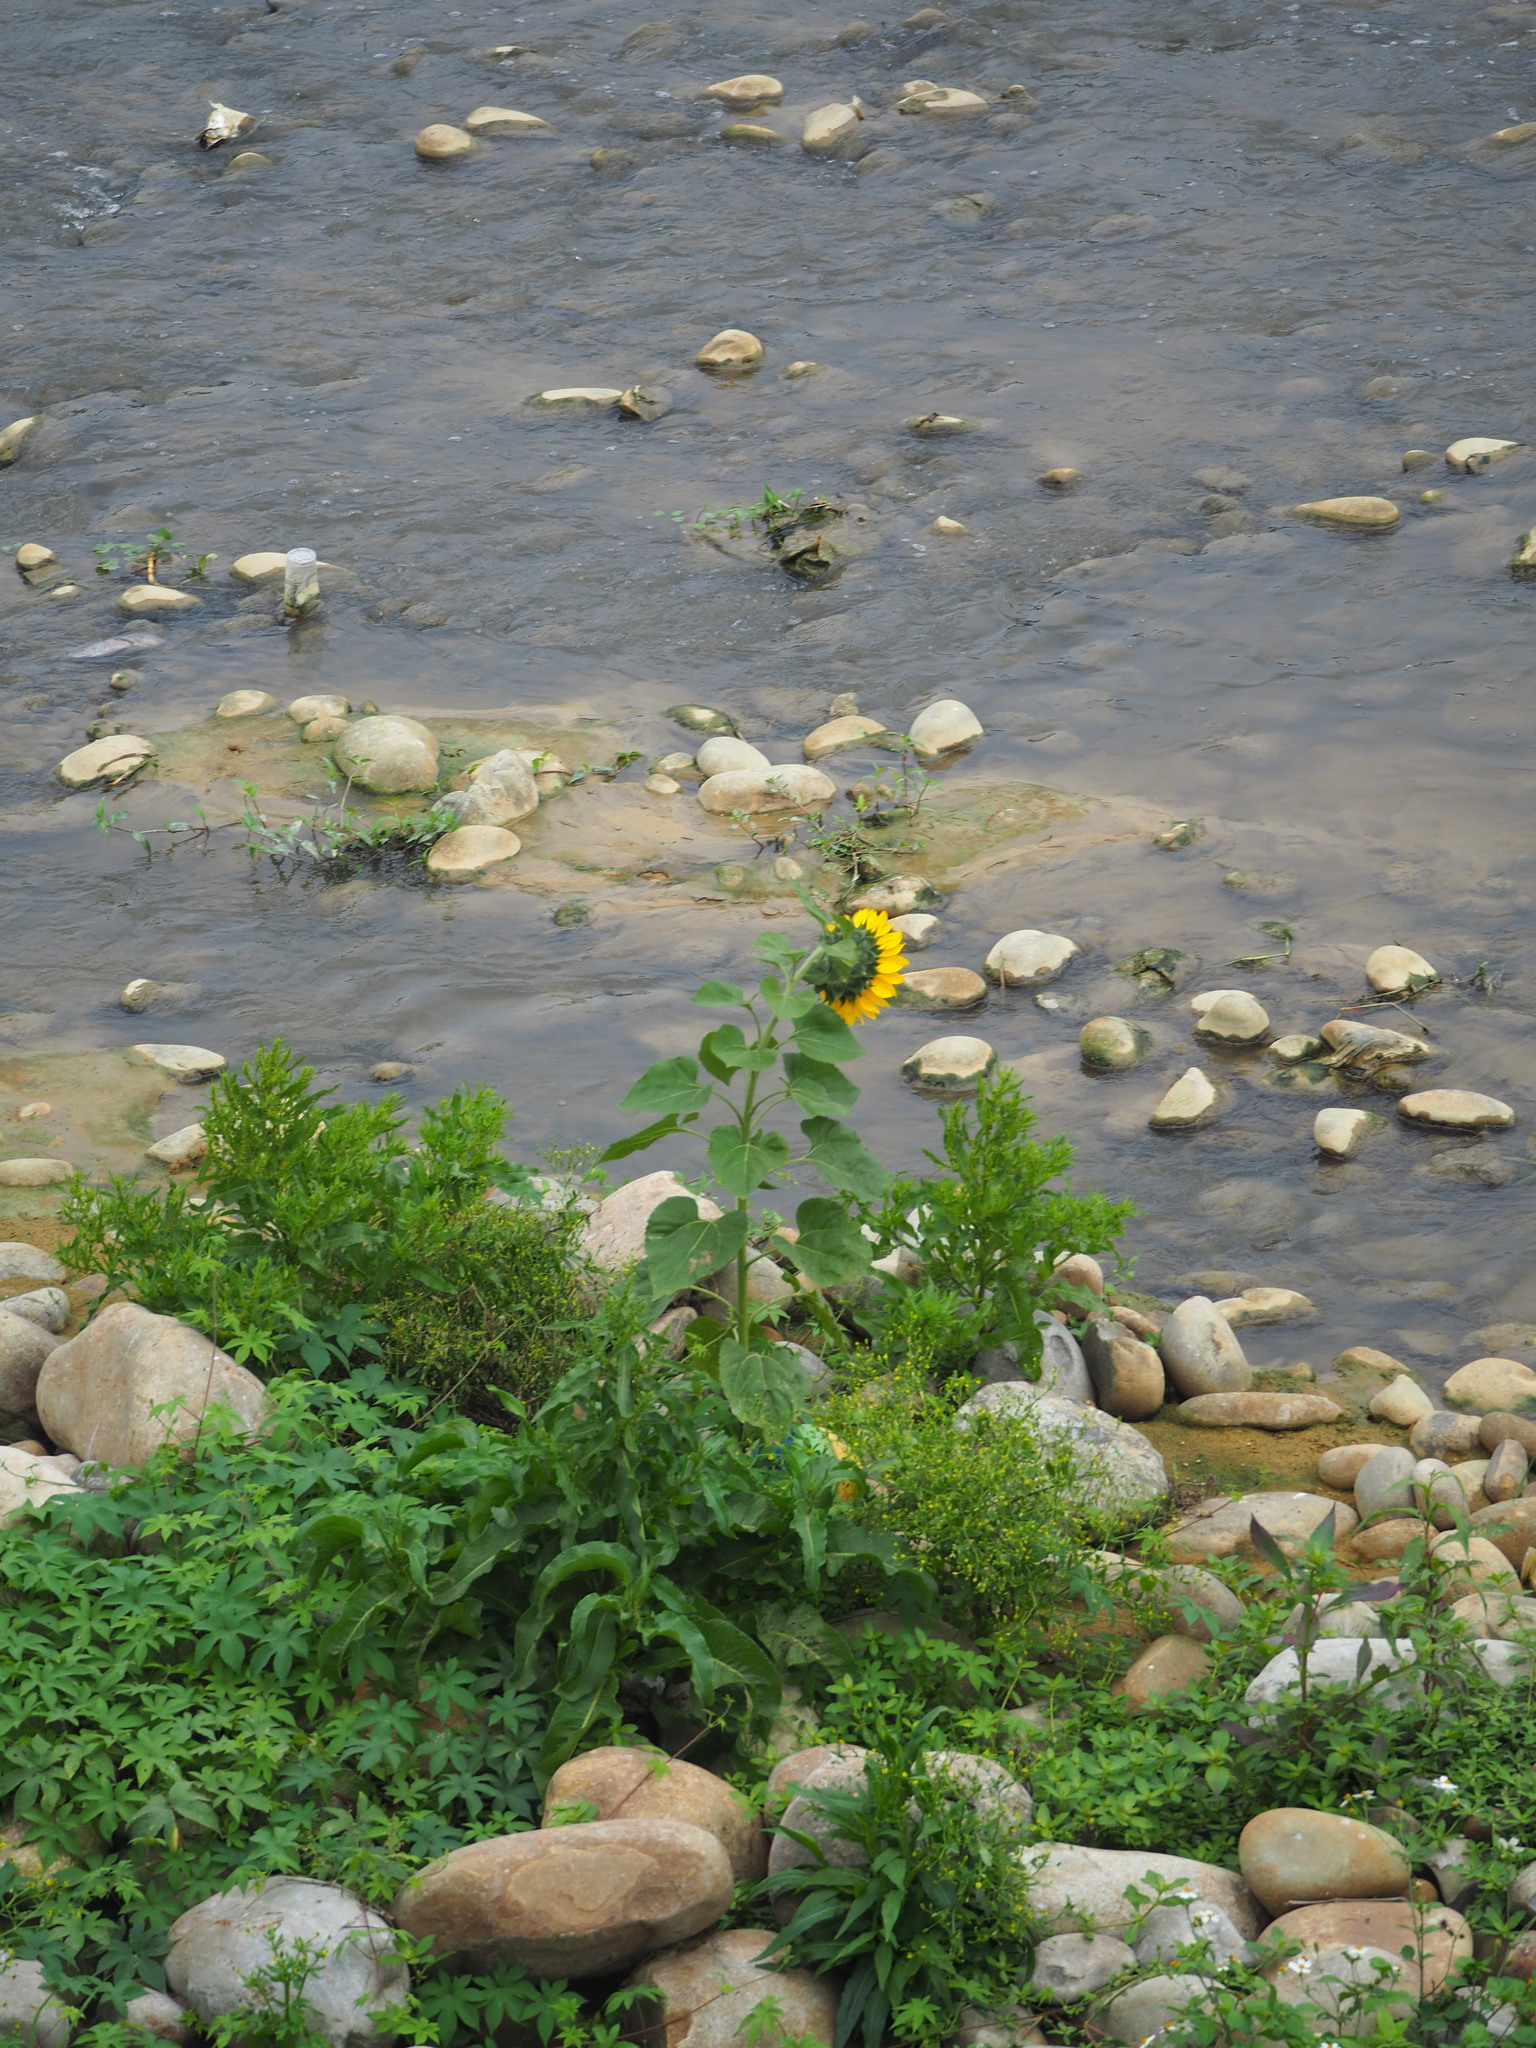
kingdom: Plantae
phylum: Tracheophyta
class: Magnoliopsida
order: Asterales
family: Asteraceae
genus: Helianthus
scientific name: Helianthus annuus
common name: Sunflower
